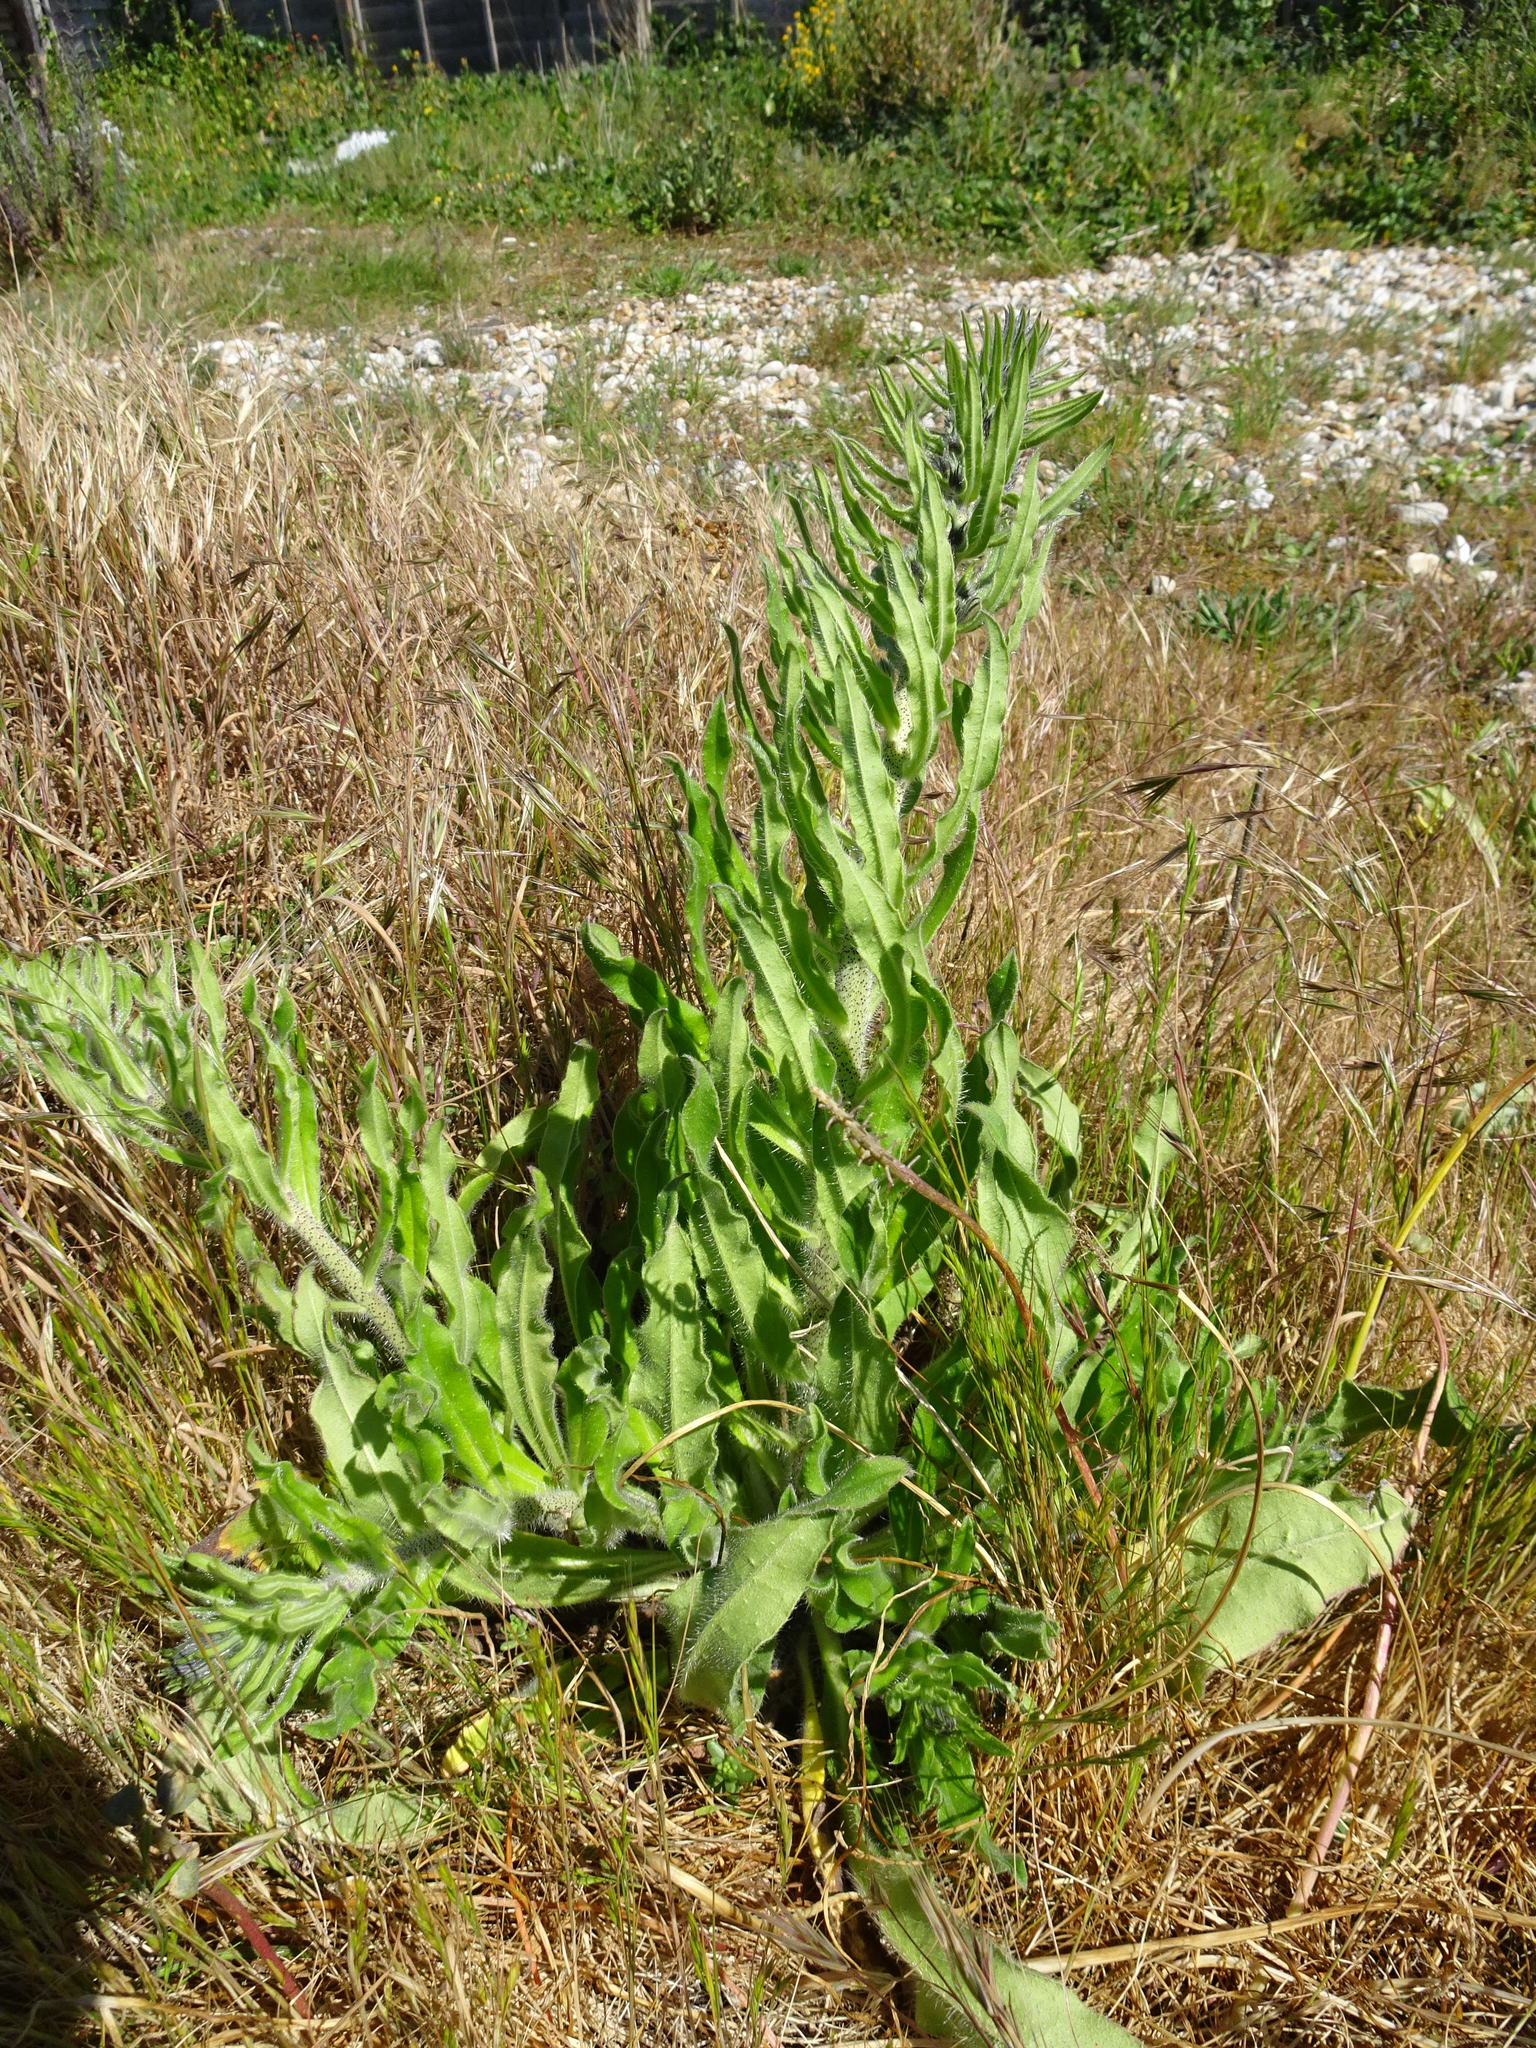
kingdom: Plantae
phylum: Tracheophyta
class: Magnoliopsida
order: Boraginales
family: Boraginaceae
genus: Echium
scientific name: Echium vulgare
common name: Common viper's bugloss
